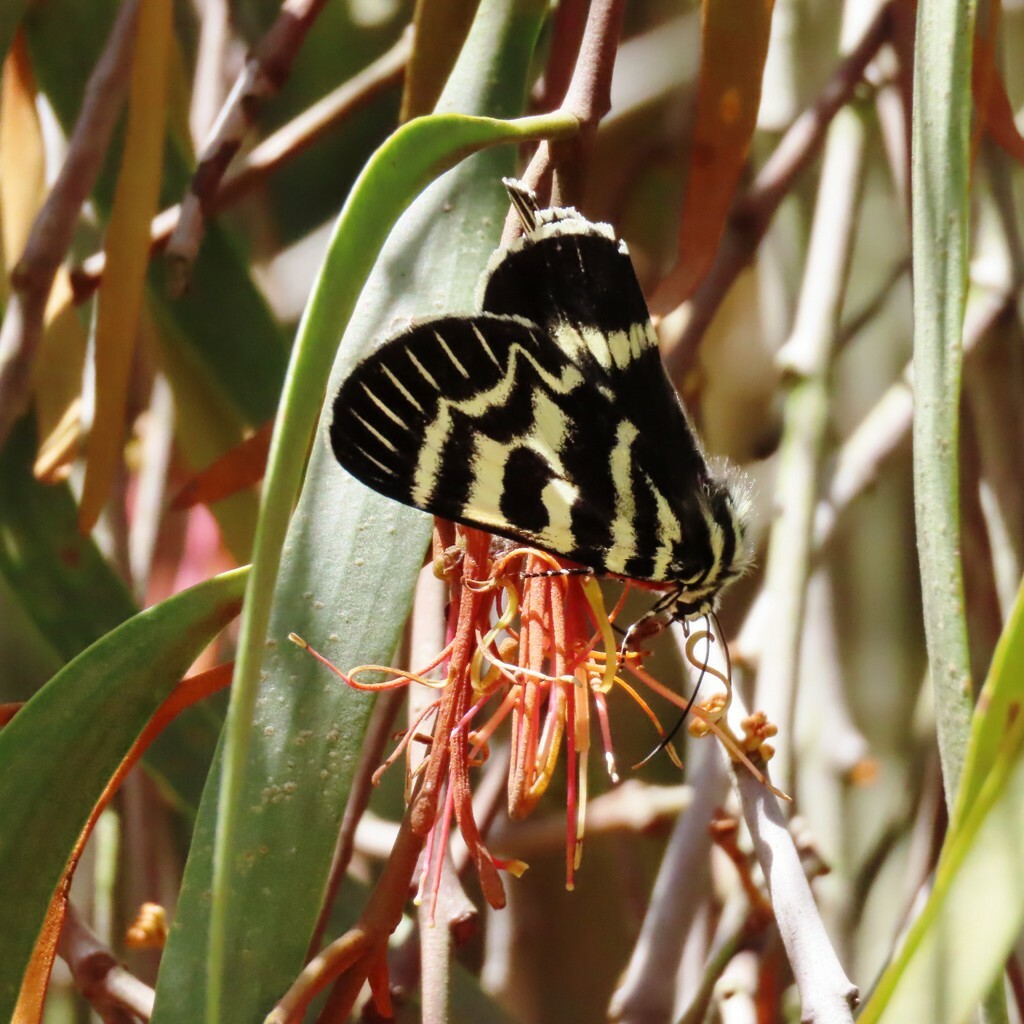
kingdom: Animalia
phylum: Arthropoda
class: Insecta
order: Lepidoptera
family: Noctuidae
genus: Comocrus
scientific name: Comocrus behri
